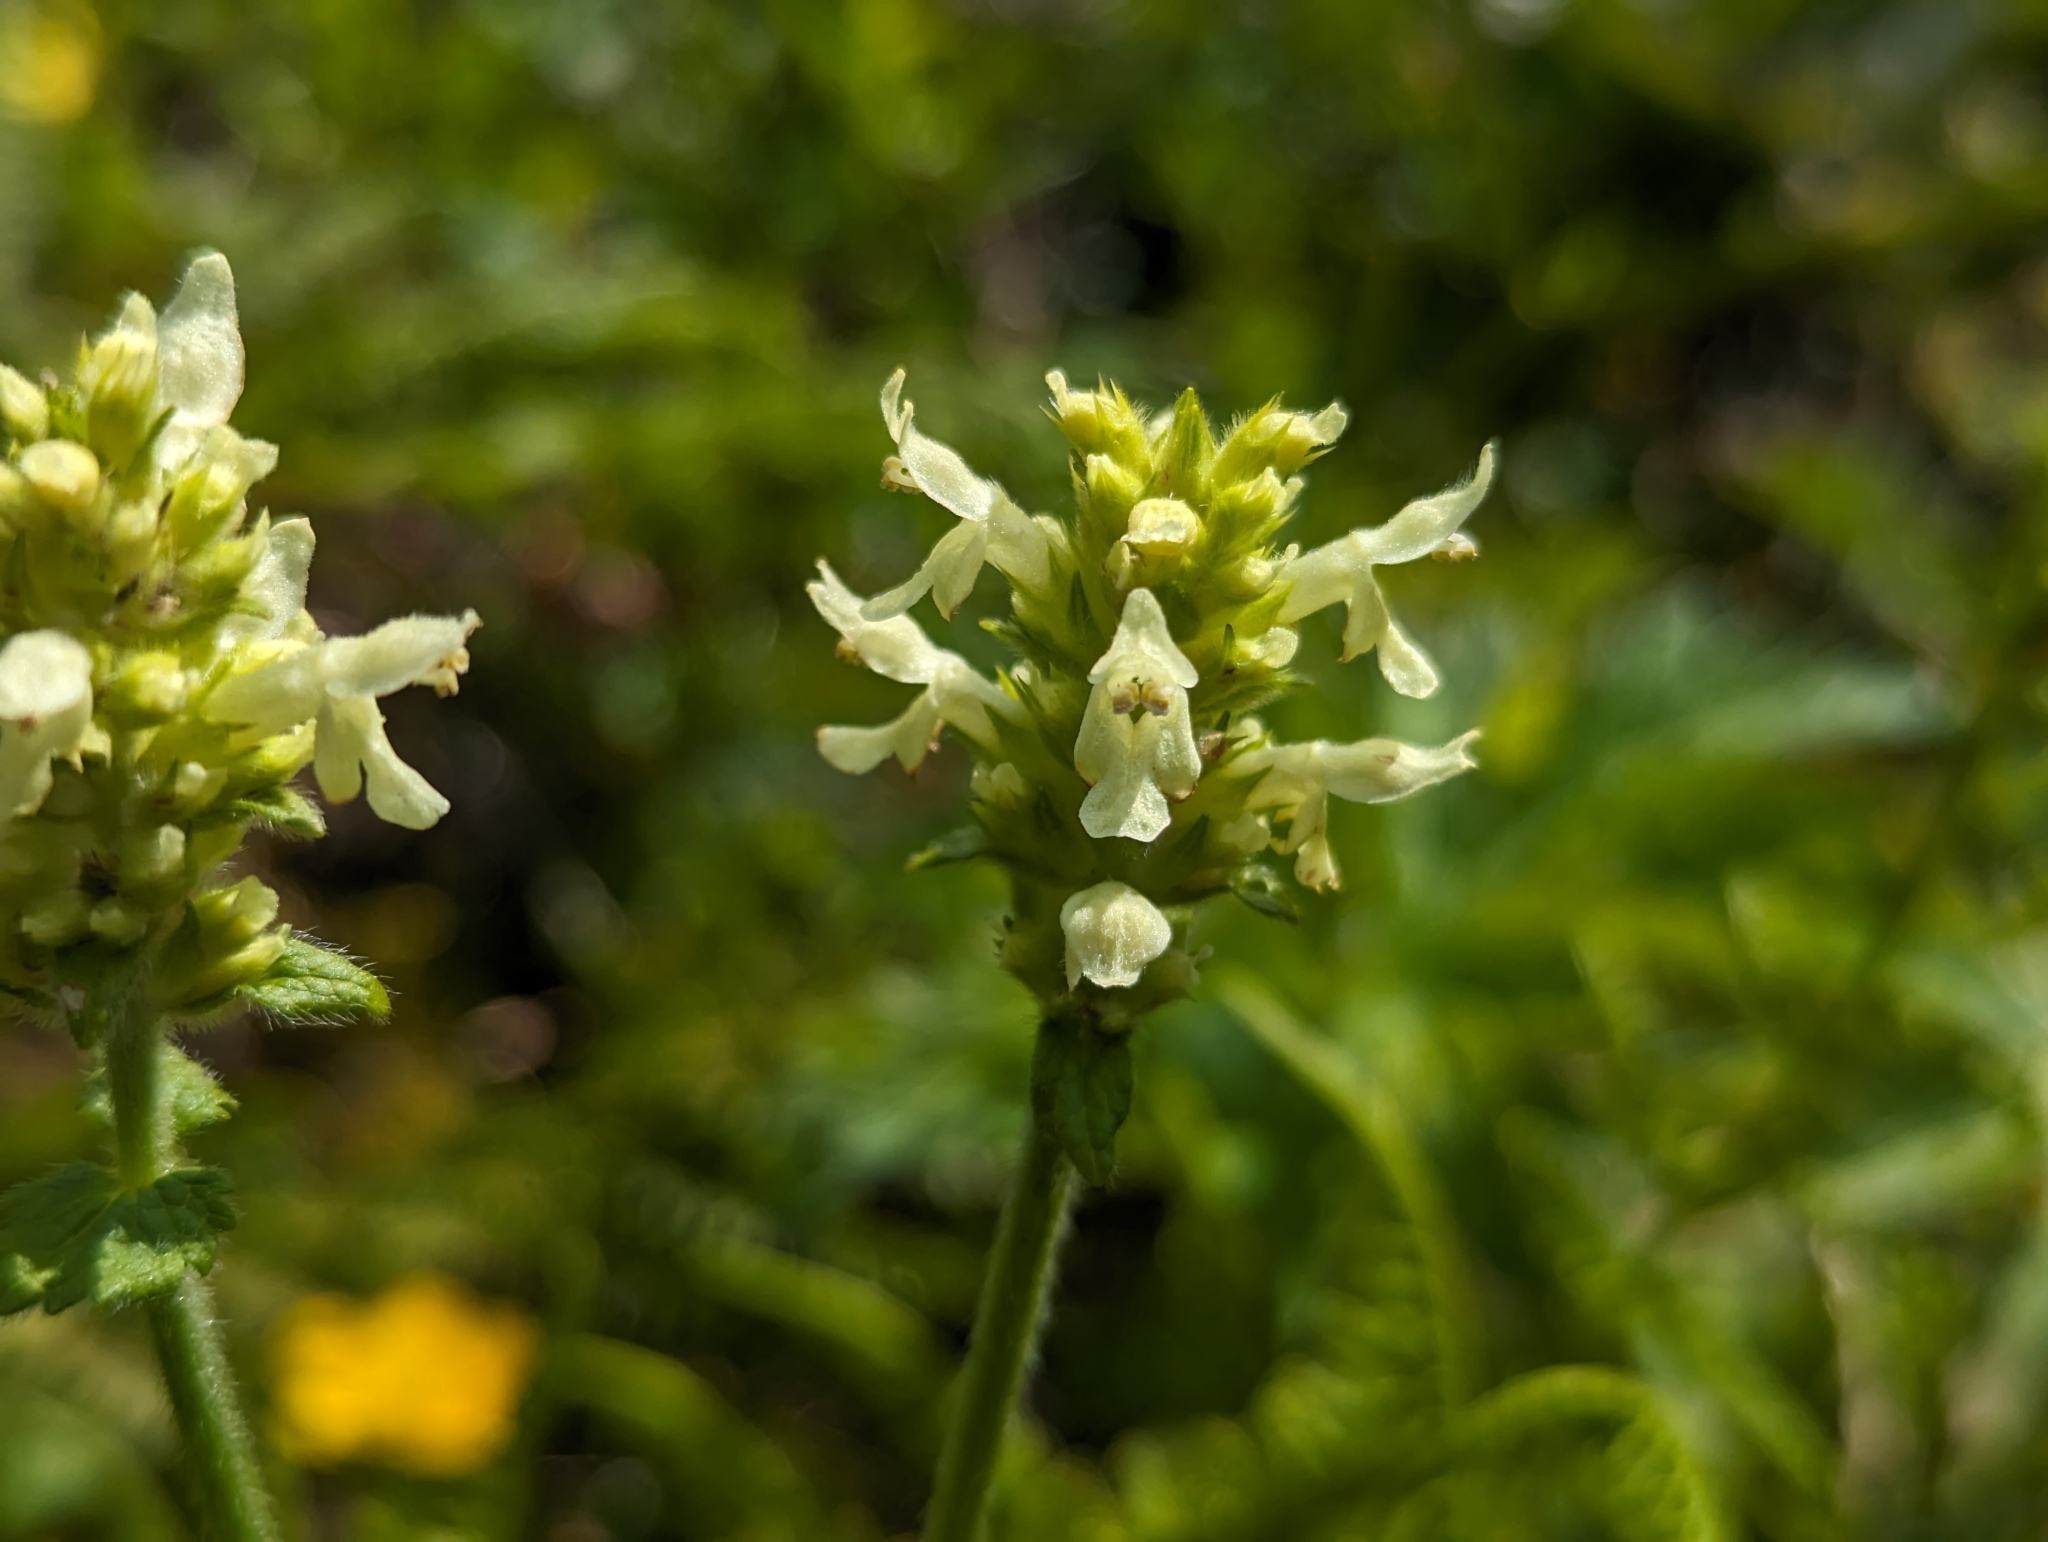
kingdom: Plantae
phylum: Tracheophyta
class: Magnoliopsida
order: Lamiales
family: Lamiaceae
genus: Betonica
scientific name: Betonica alopecuros
